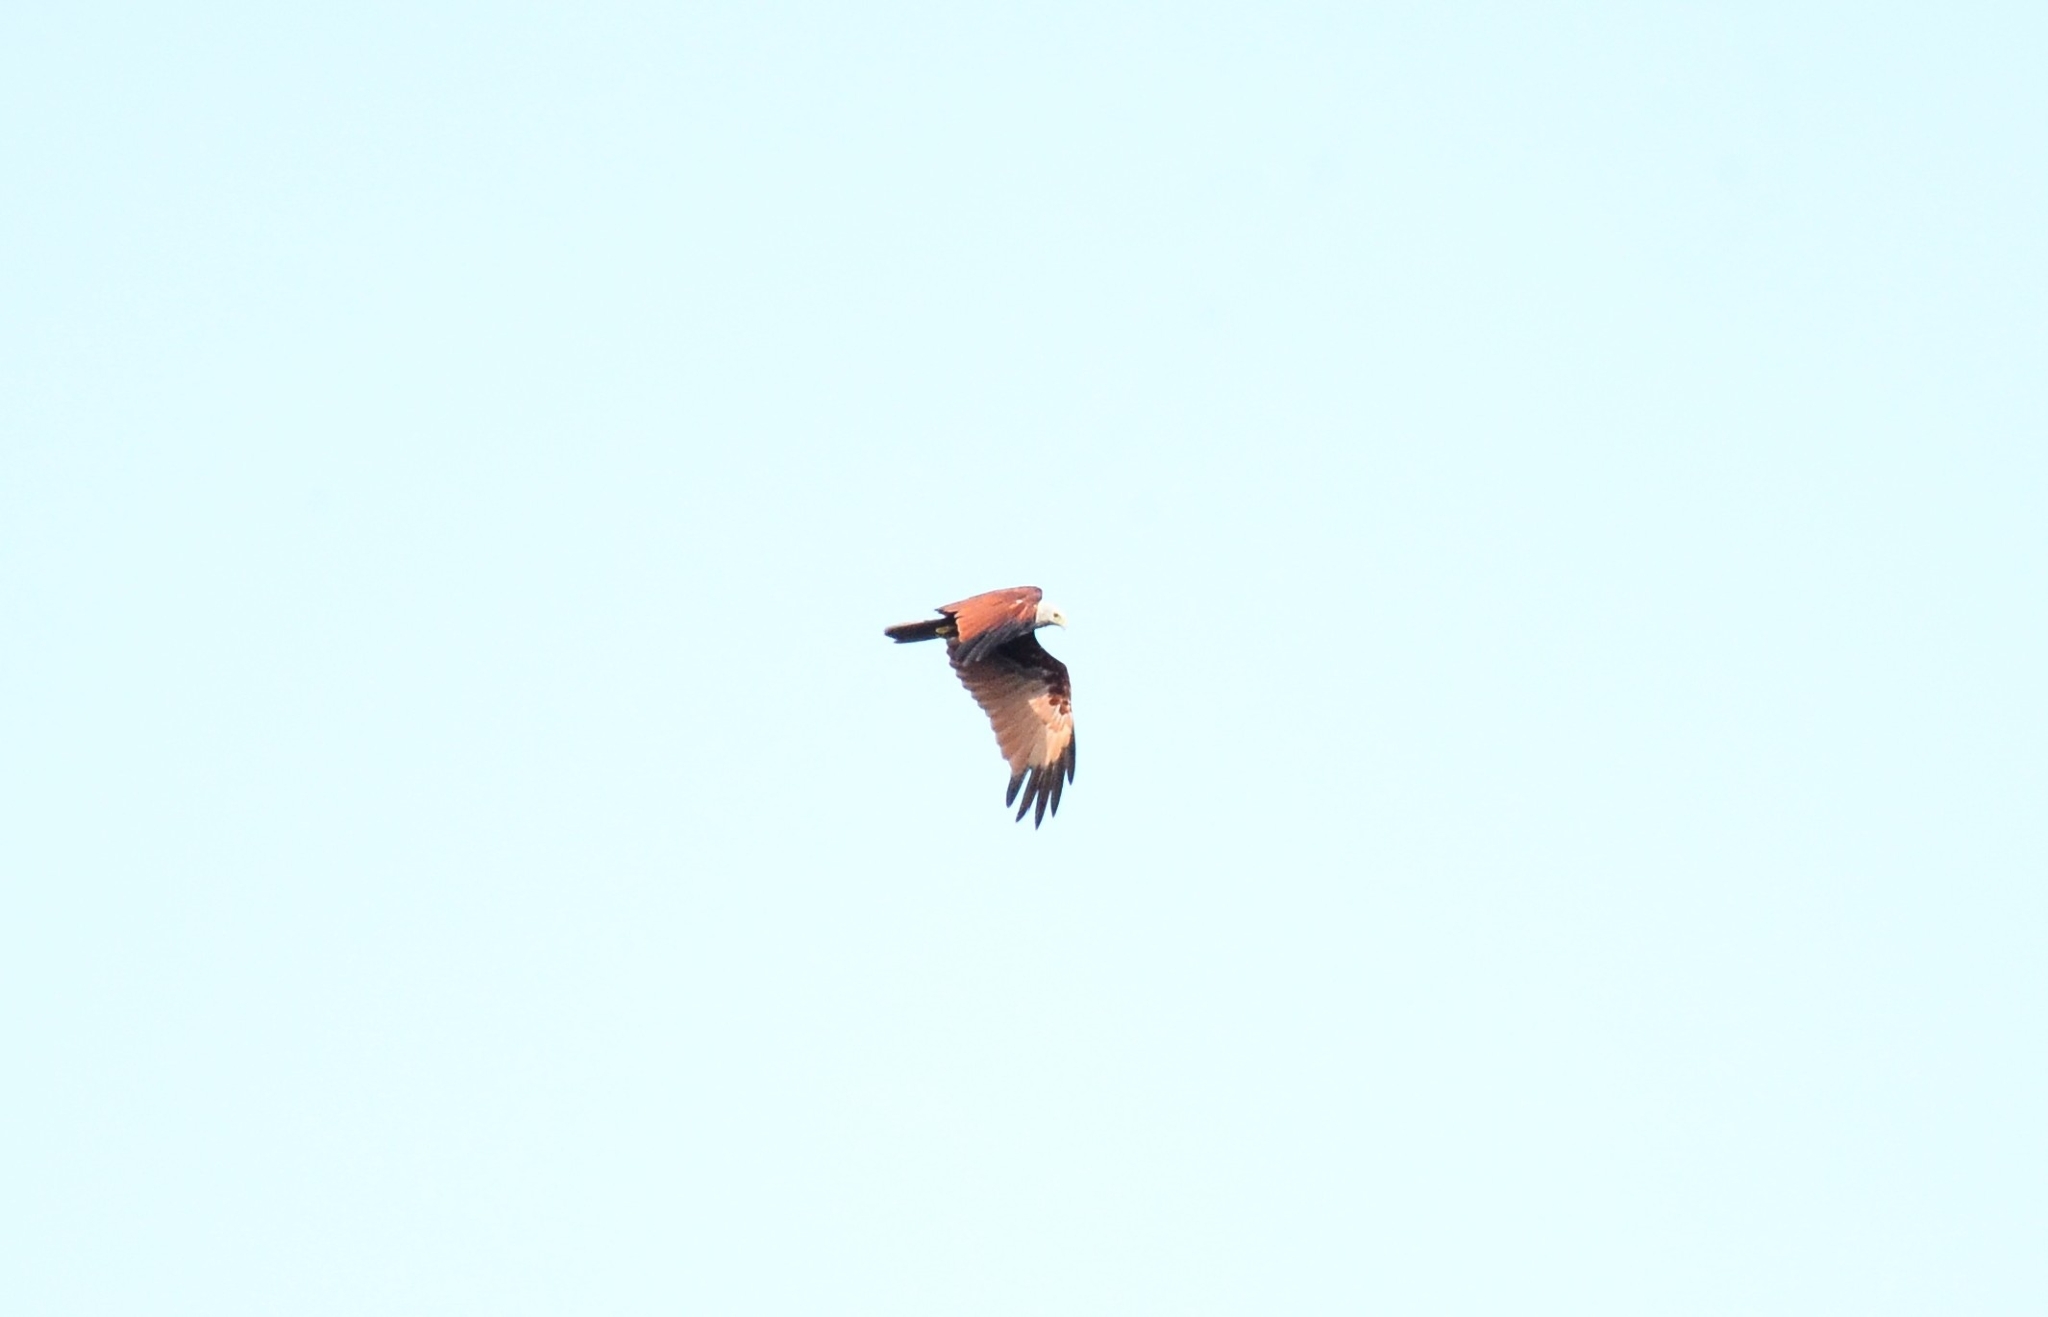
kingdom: Animalia
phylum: Chordata
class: Aves
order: Accipitriformes
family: Accipitridae
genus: Haliastur
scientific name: Haliastur indus
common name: Brahminy kite
